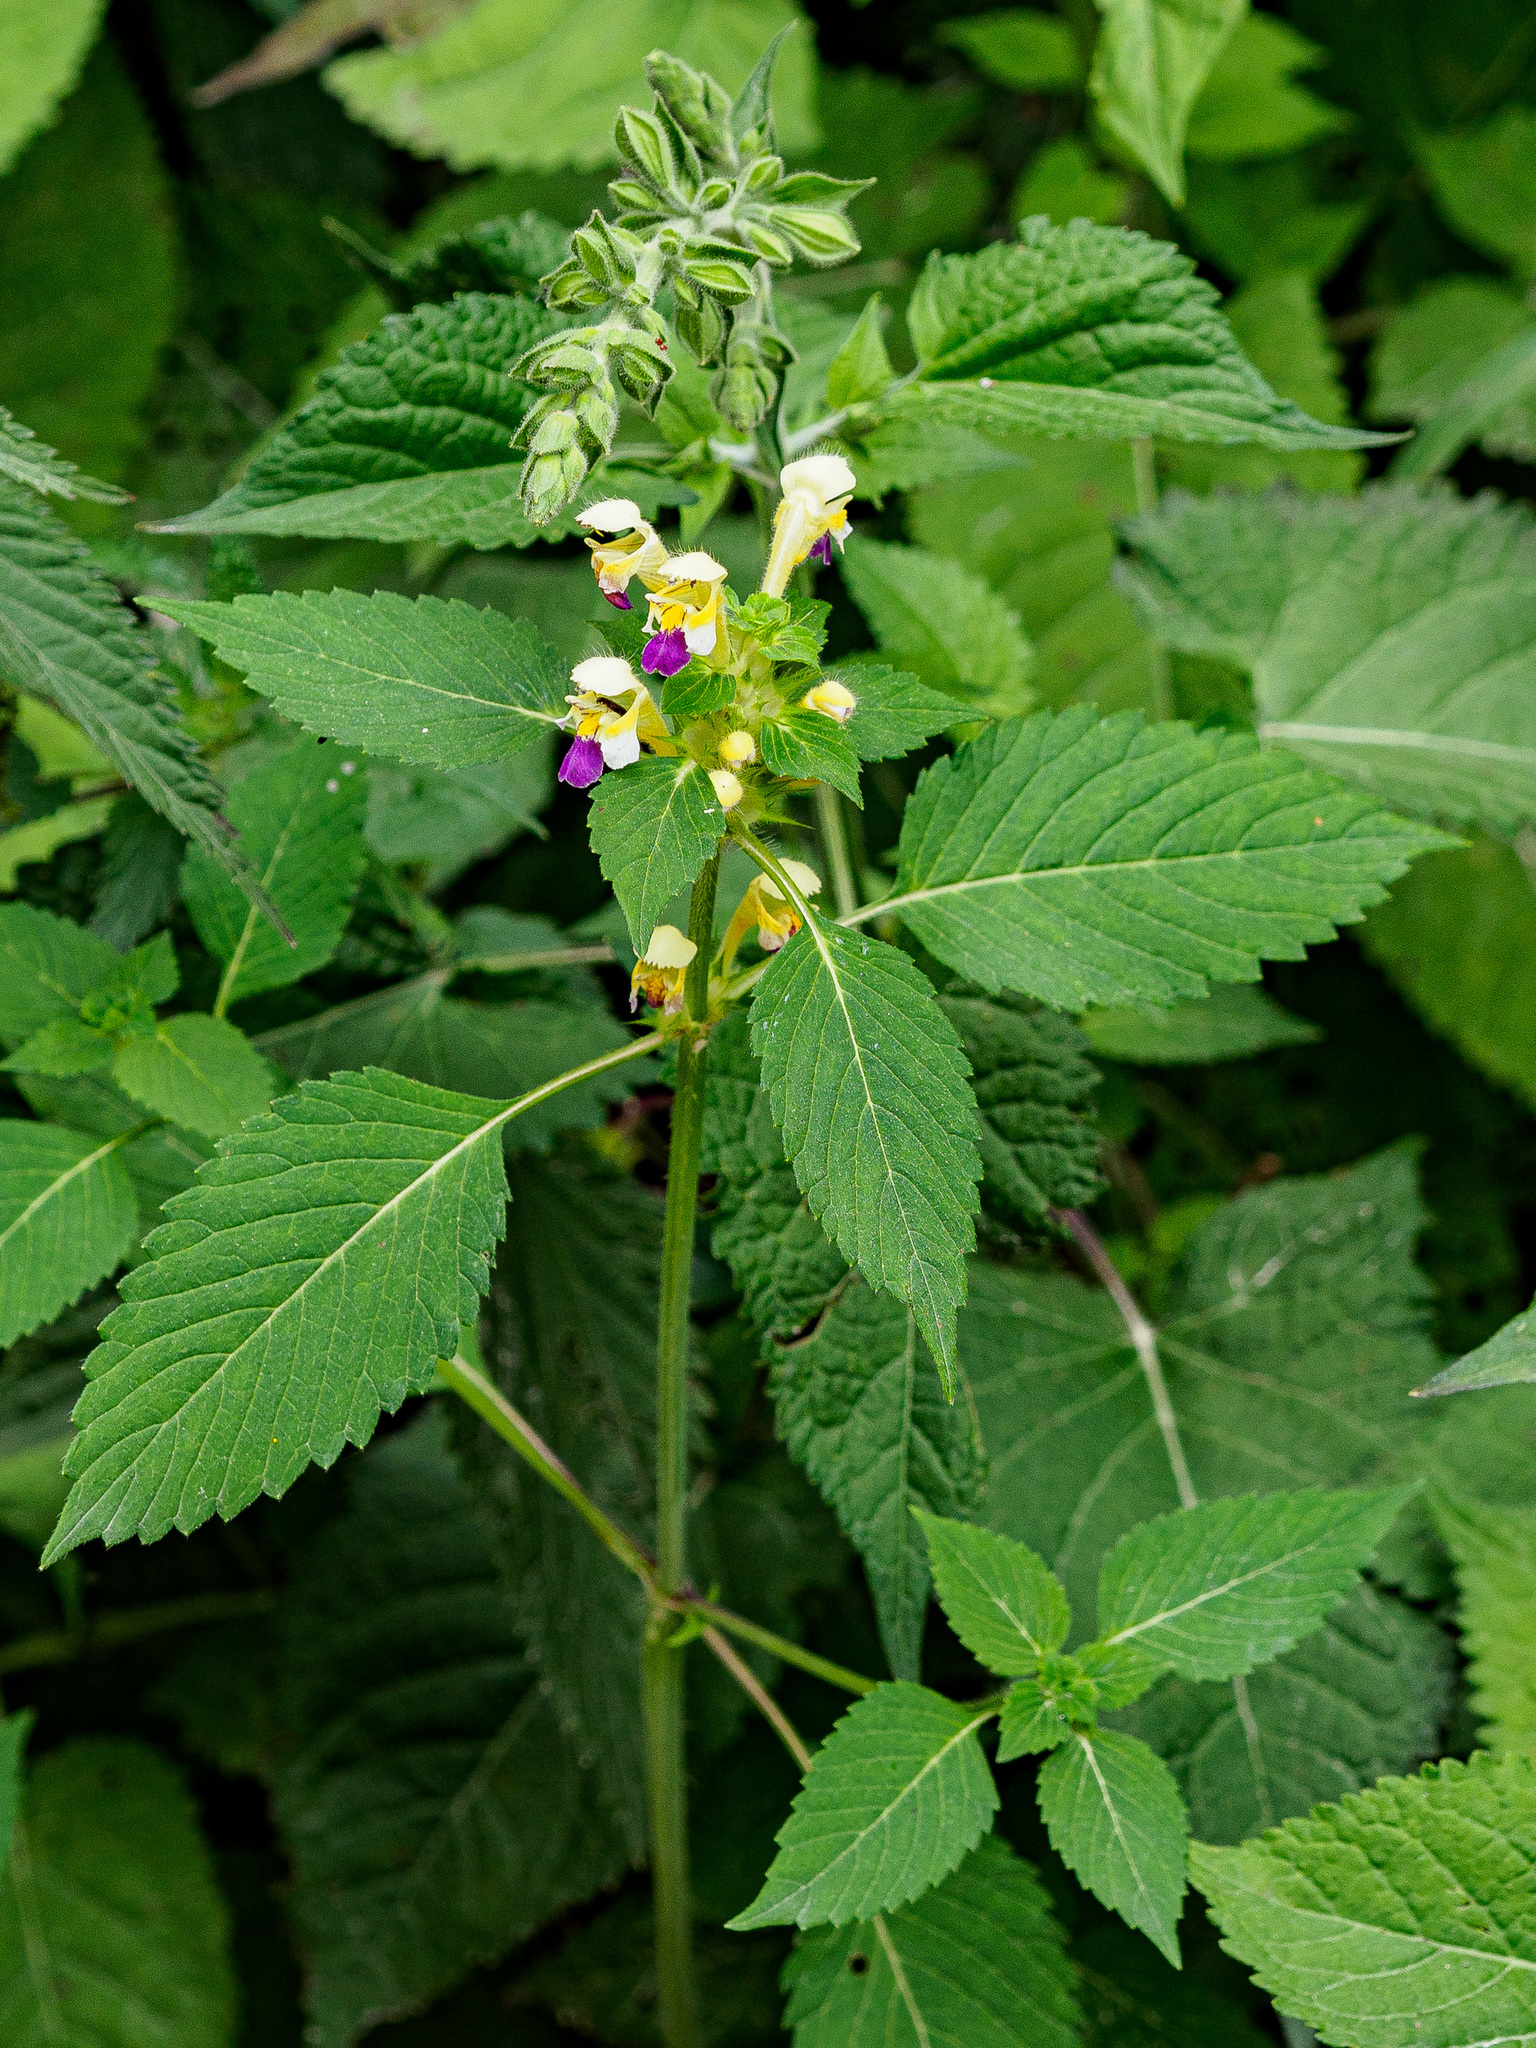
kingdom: Plantae
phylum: Tracheophyta
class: Magnoliopsida
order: Lamiales
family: Lamiaceae
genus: Galeopsis
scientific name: Galeopsis speciosa
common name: Large-flowered hemp-nettle
